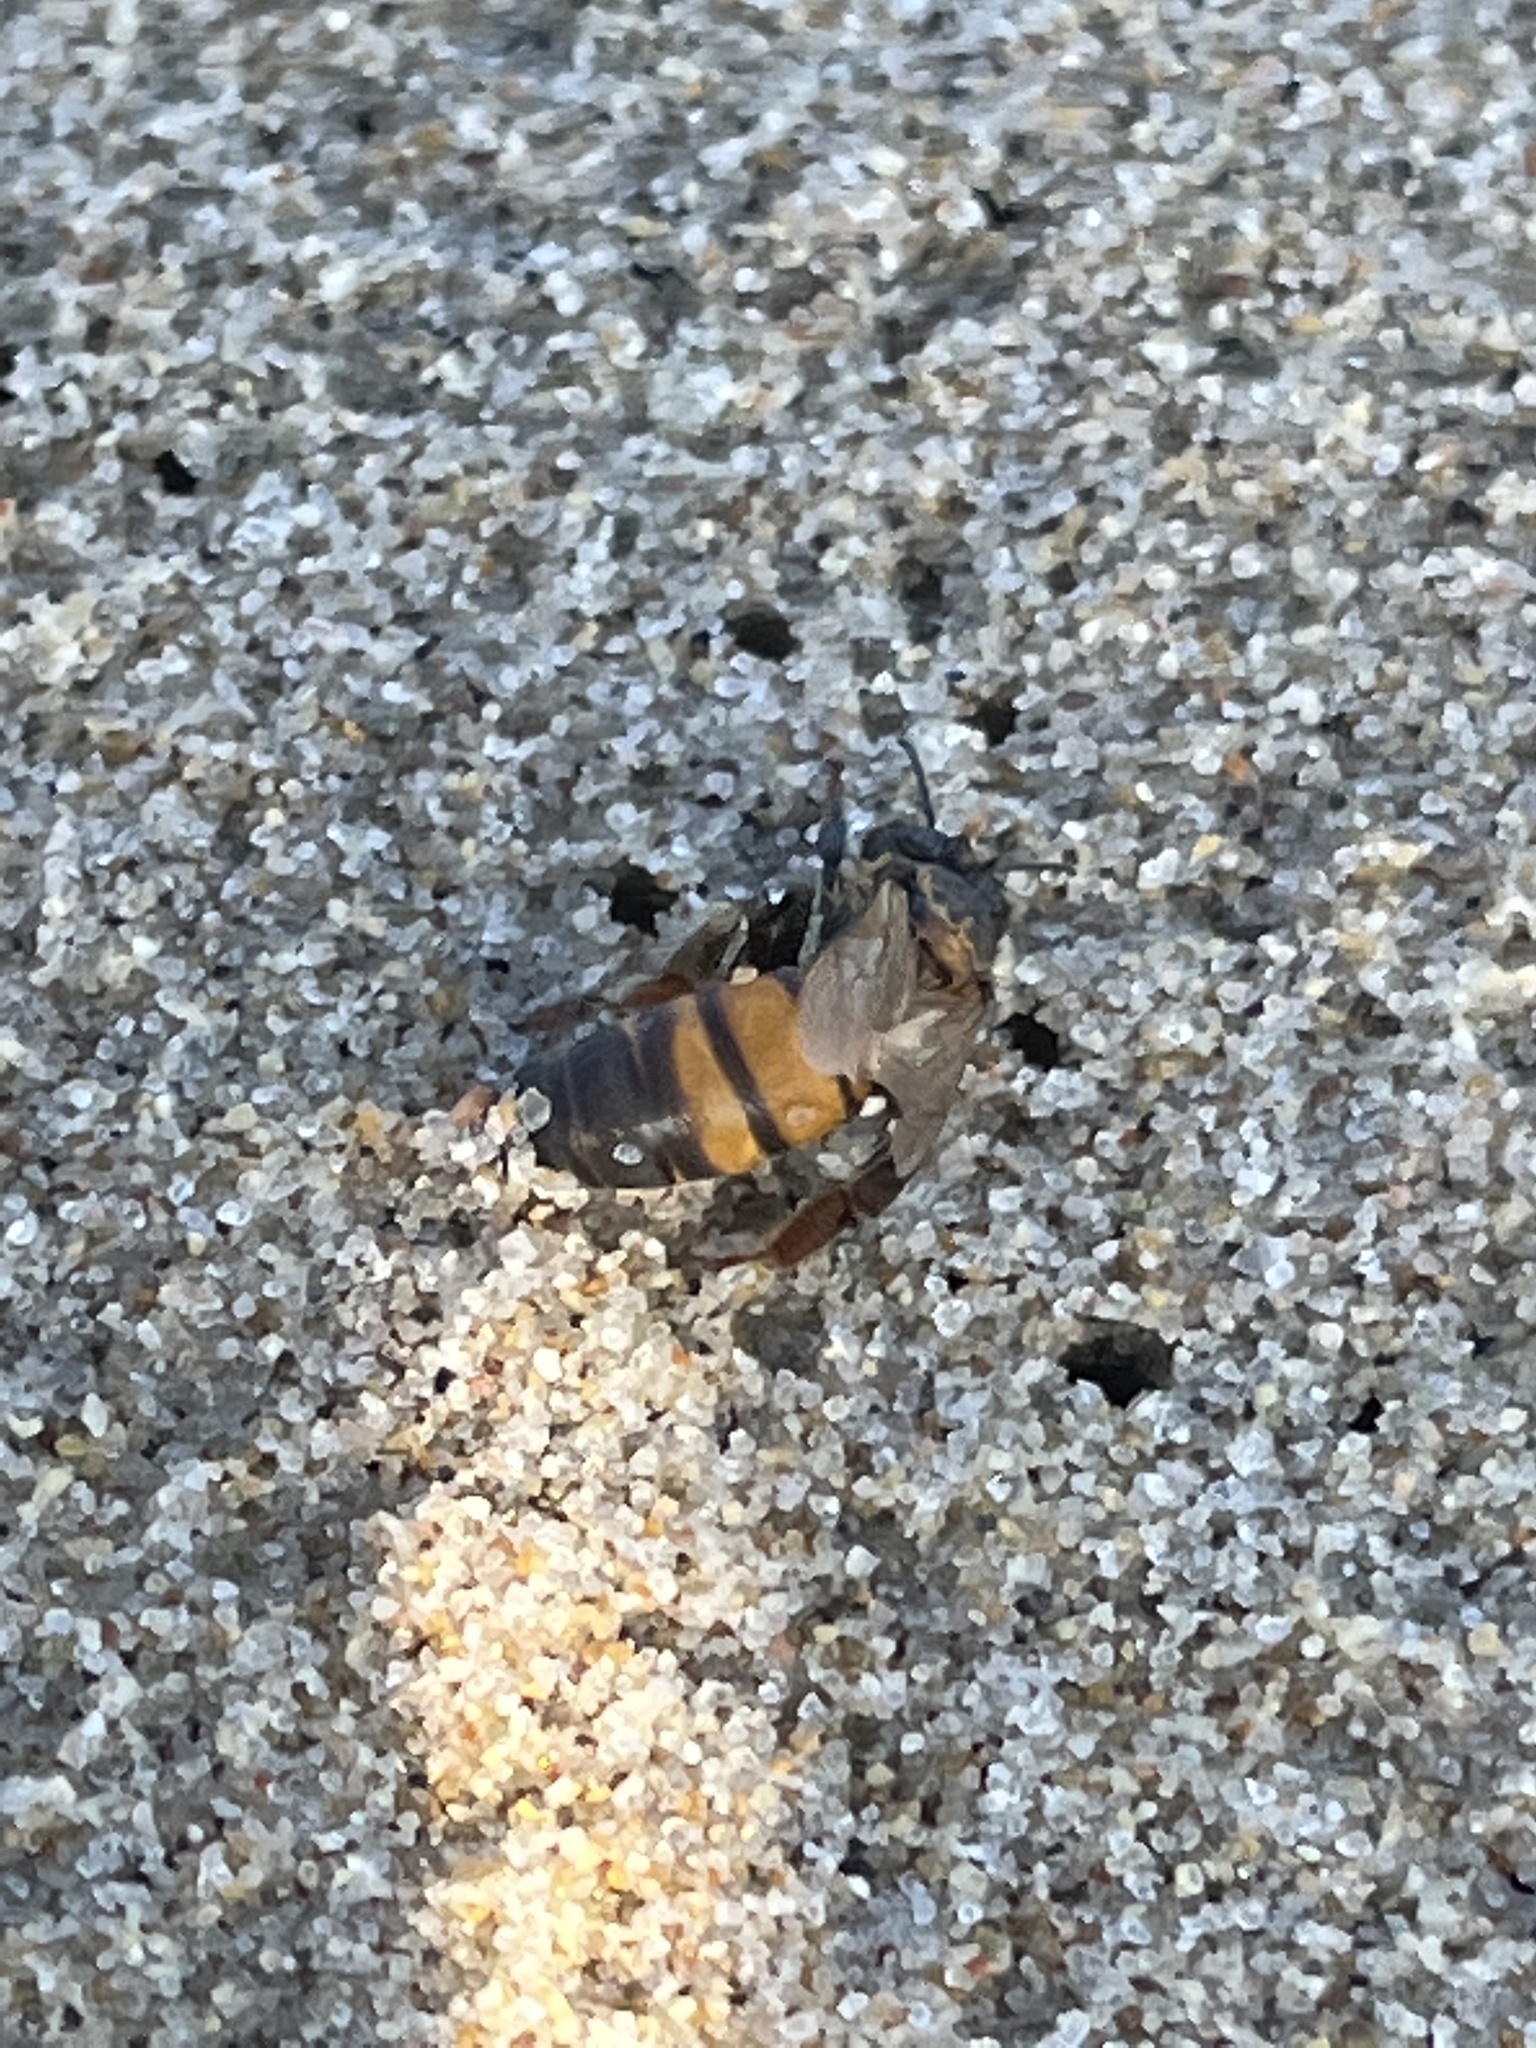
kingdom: Animalia
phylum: Arthropoda
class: Insecta
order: Hymenoptera
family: Apidae
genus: Apis
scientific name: Apis mellifera
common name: Honey bee
